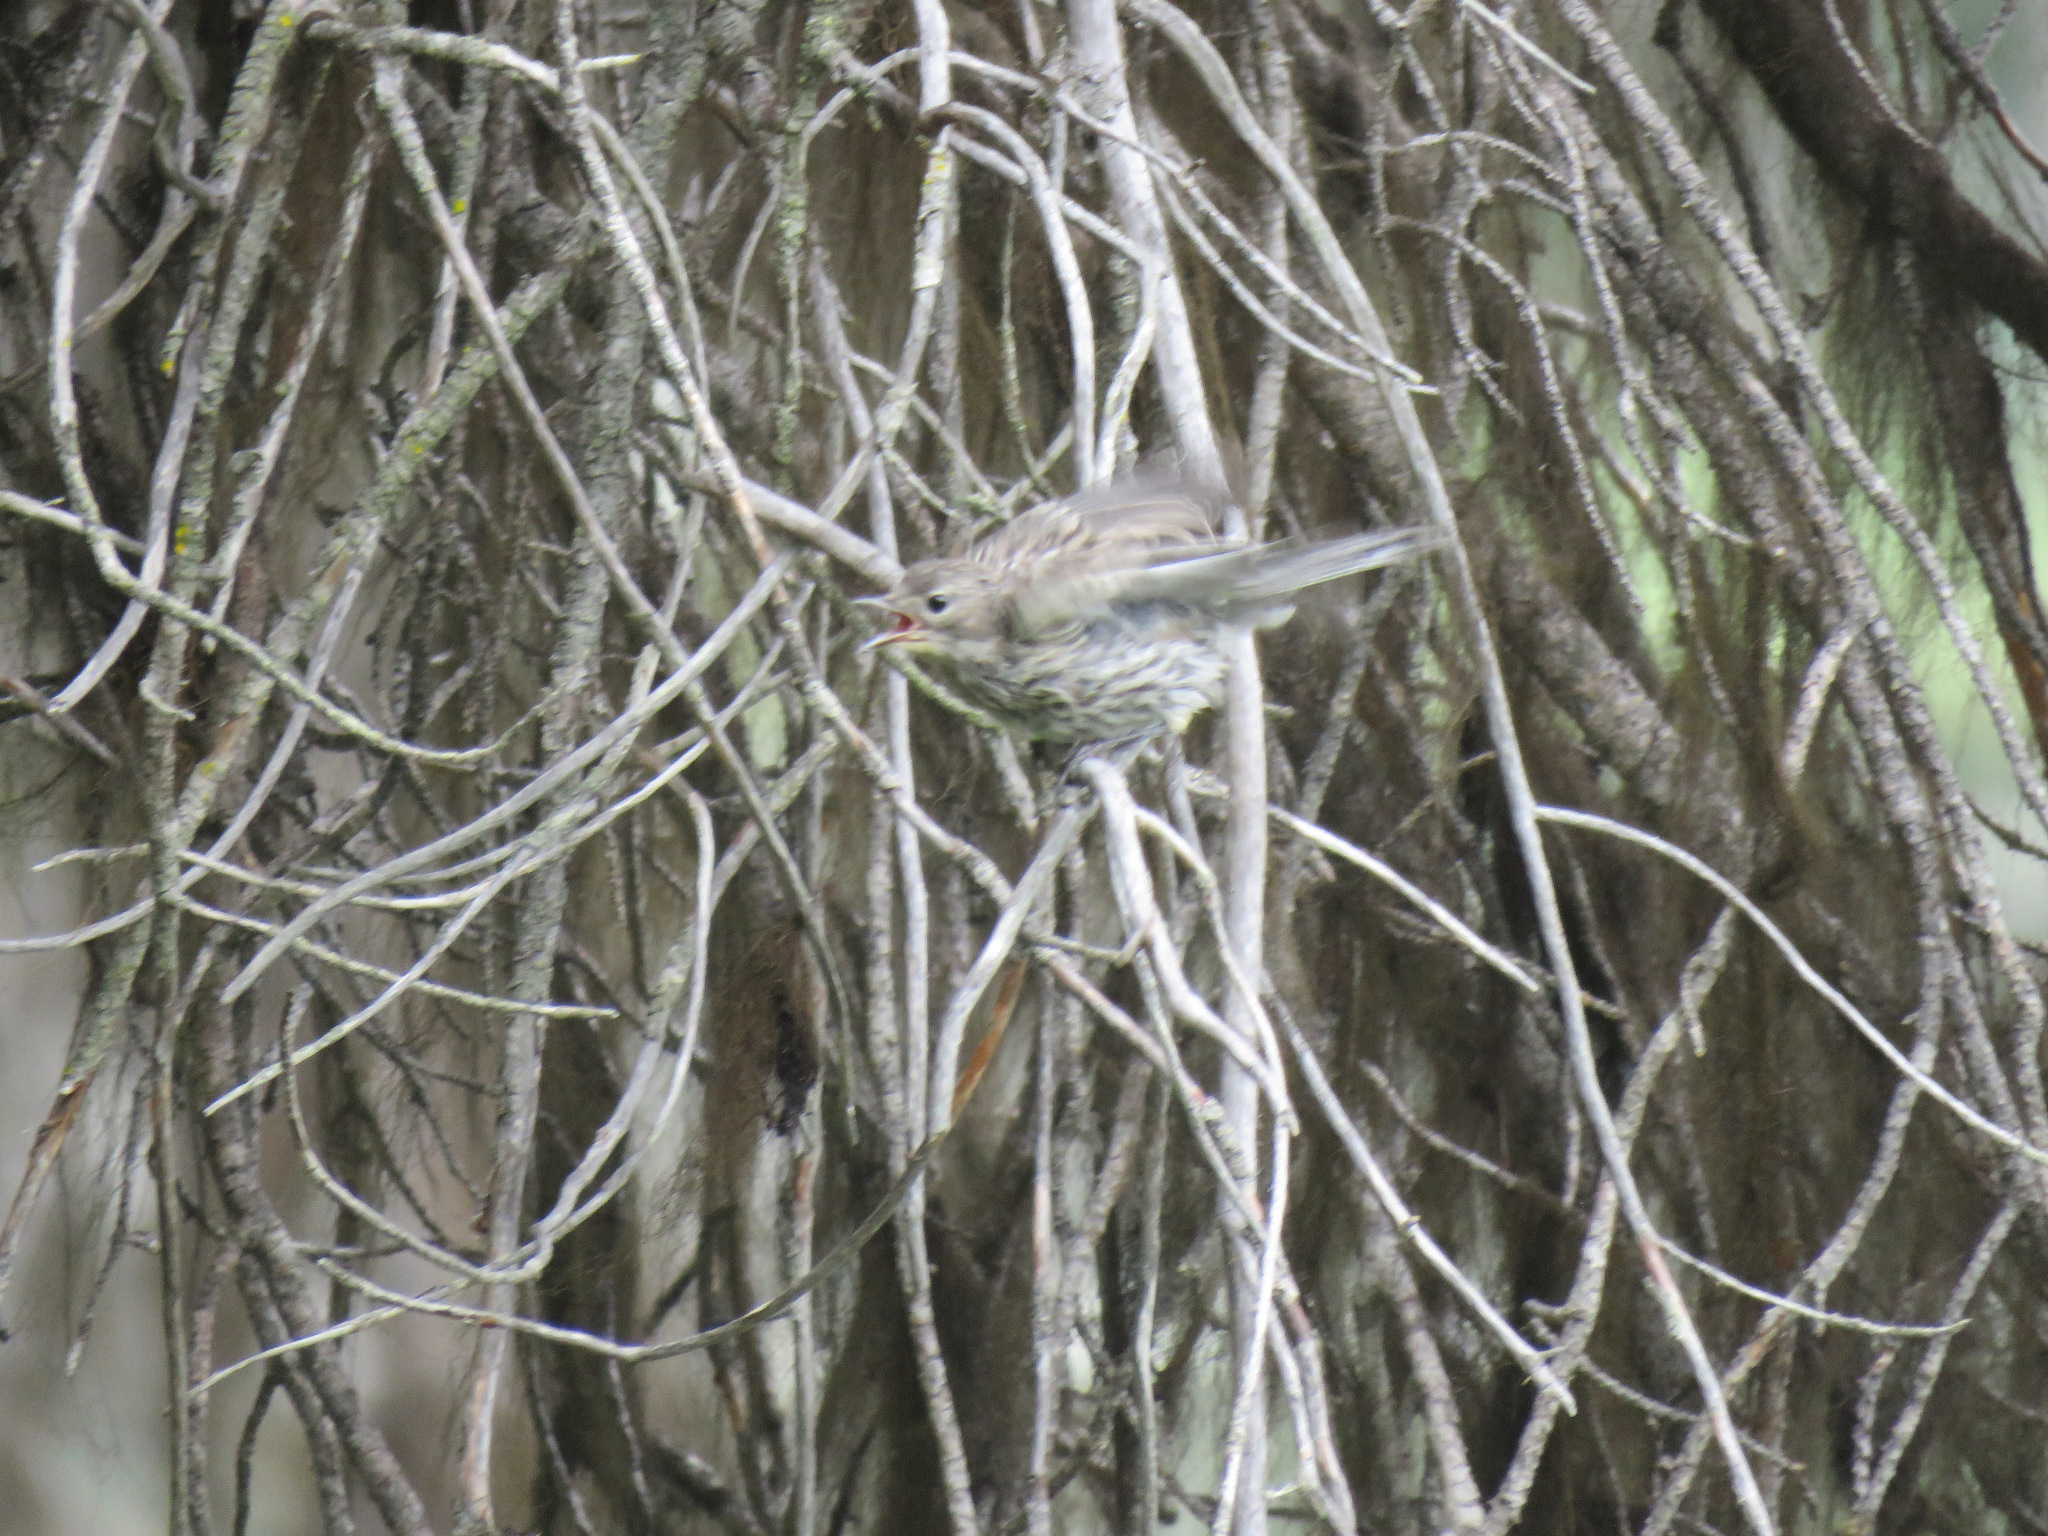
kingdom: Animalia
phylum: Chordata
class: Aves
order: Passeriformes
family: Parulidae
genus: Setophaga
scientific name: Setophaga coronata
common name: Myrtle warbler
